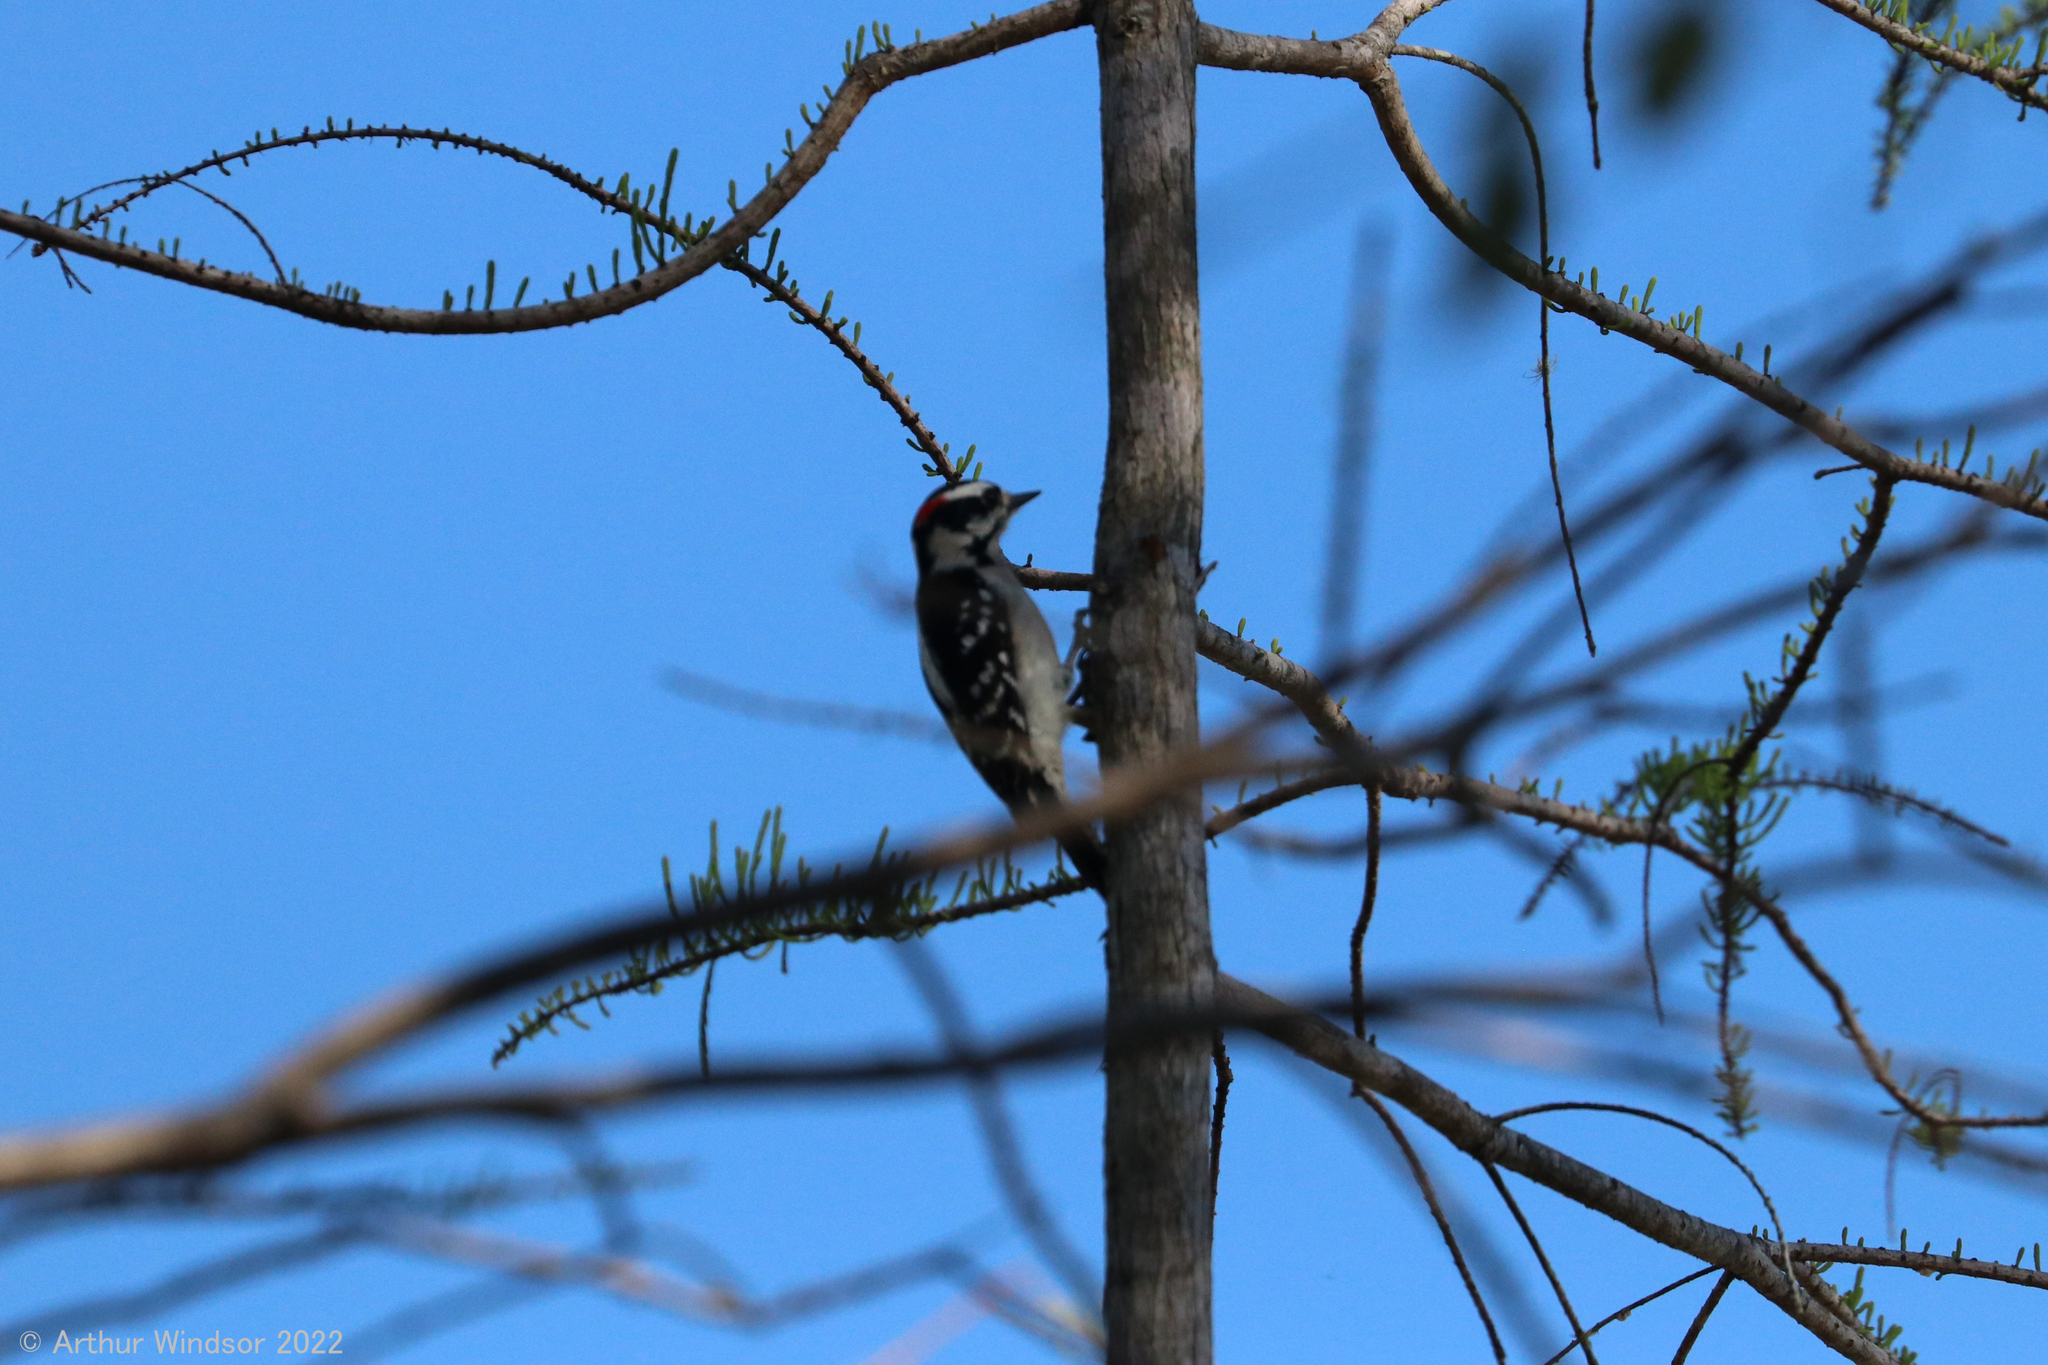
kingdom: Animalia
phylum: Chordata
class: Aves
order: Piciformes
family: Picidae
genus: Dryobates
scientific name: Dryobates pubescens
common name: Downy woodpecker
